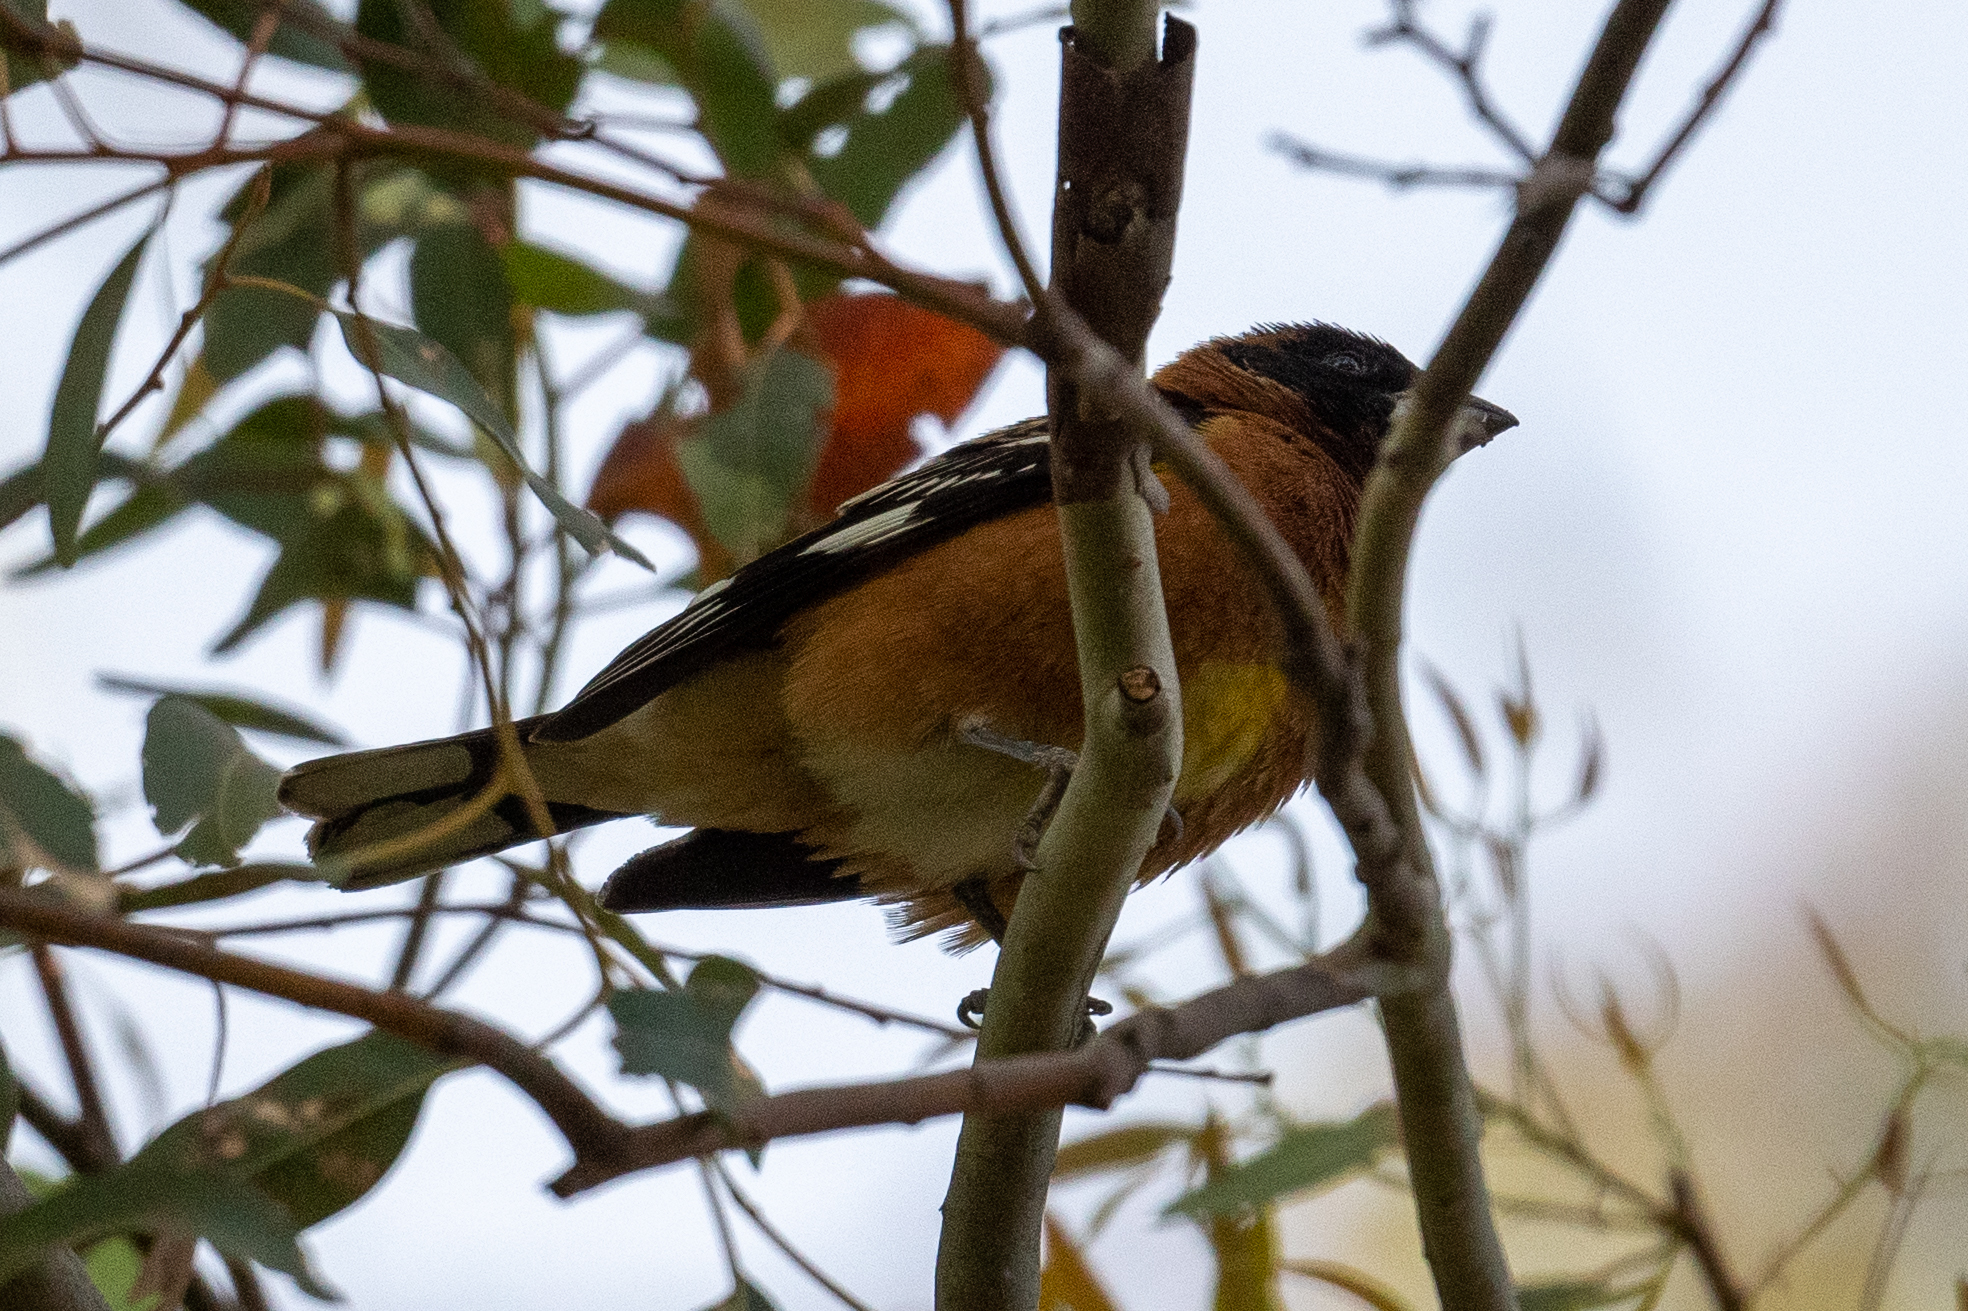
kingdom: Animalia
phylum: Chordata
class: Aves
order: Passeriformes
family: Cardinalidae
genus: Pheucticus
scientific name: Pheucticus melanocephalus
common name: Black-headed grosbeak
